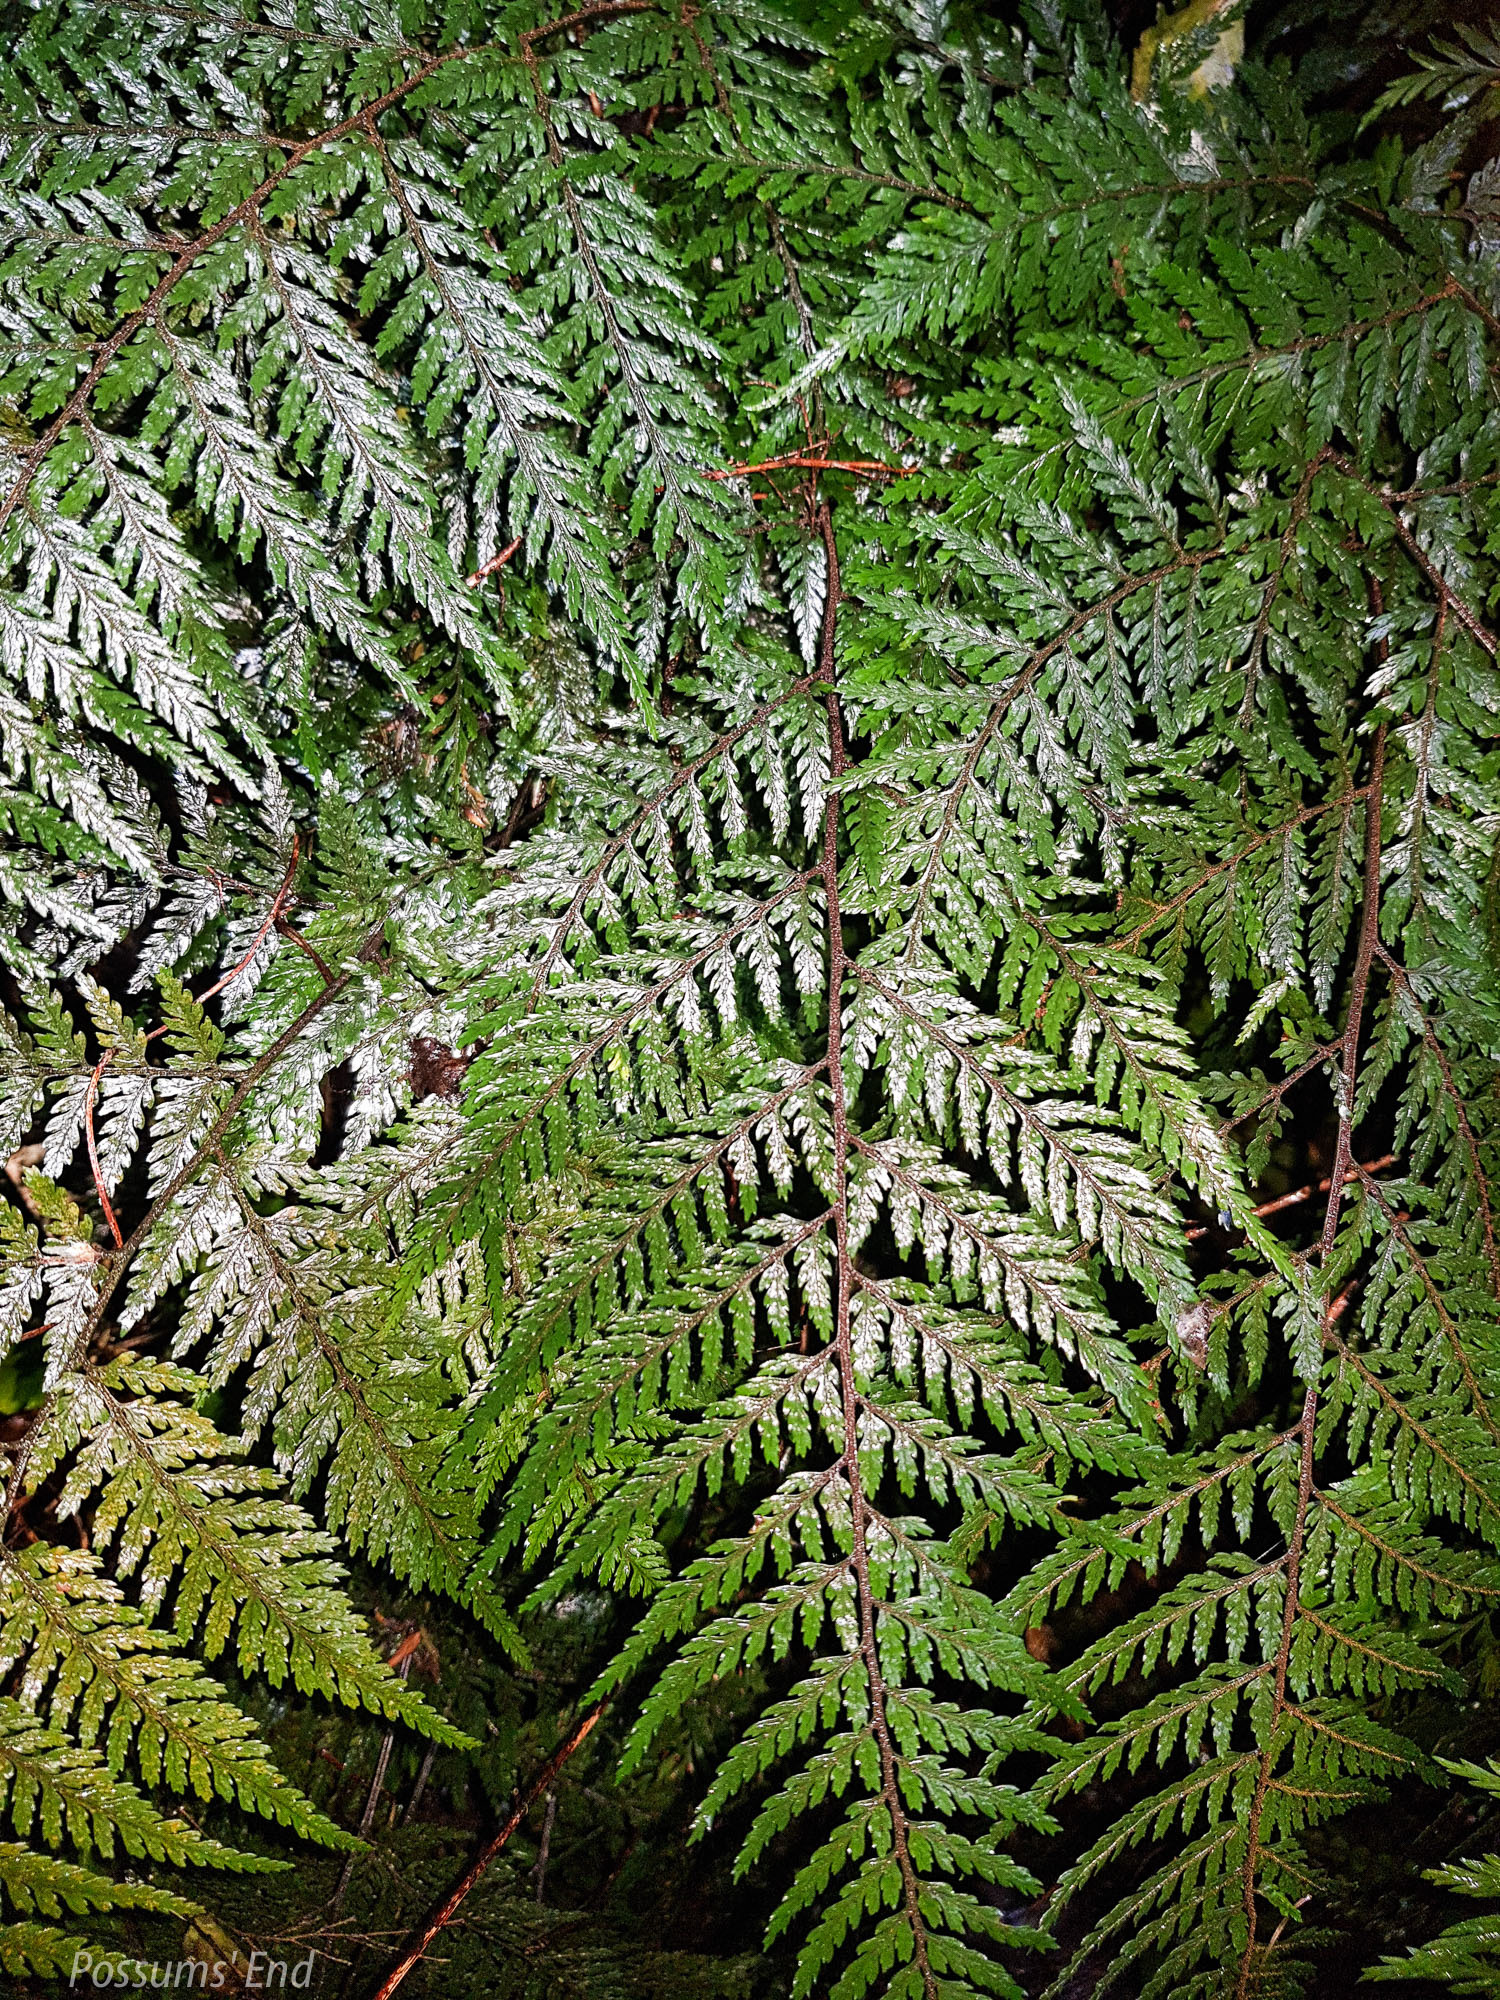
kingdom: Plantae
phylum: Tracheophyta
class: Polypodiopsida
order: Polypodiales
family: Dryopteridaceae
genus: Parapolystichum
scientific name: Parapolystichum glabellum
